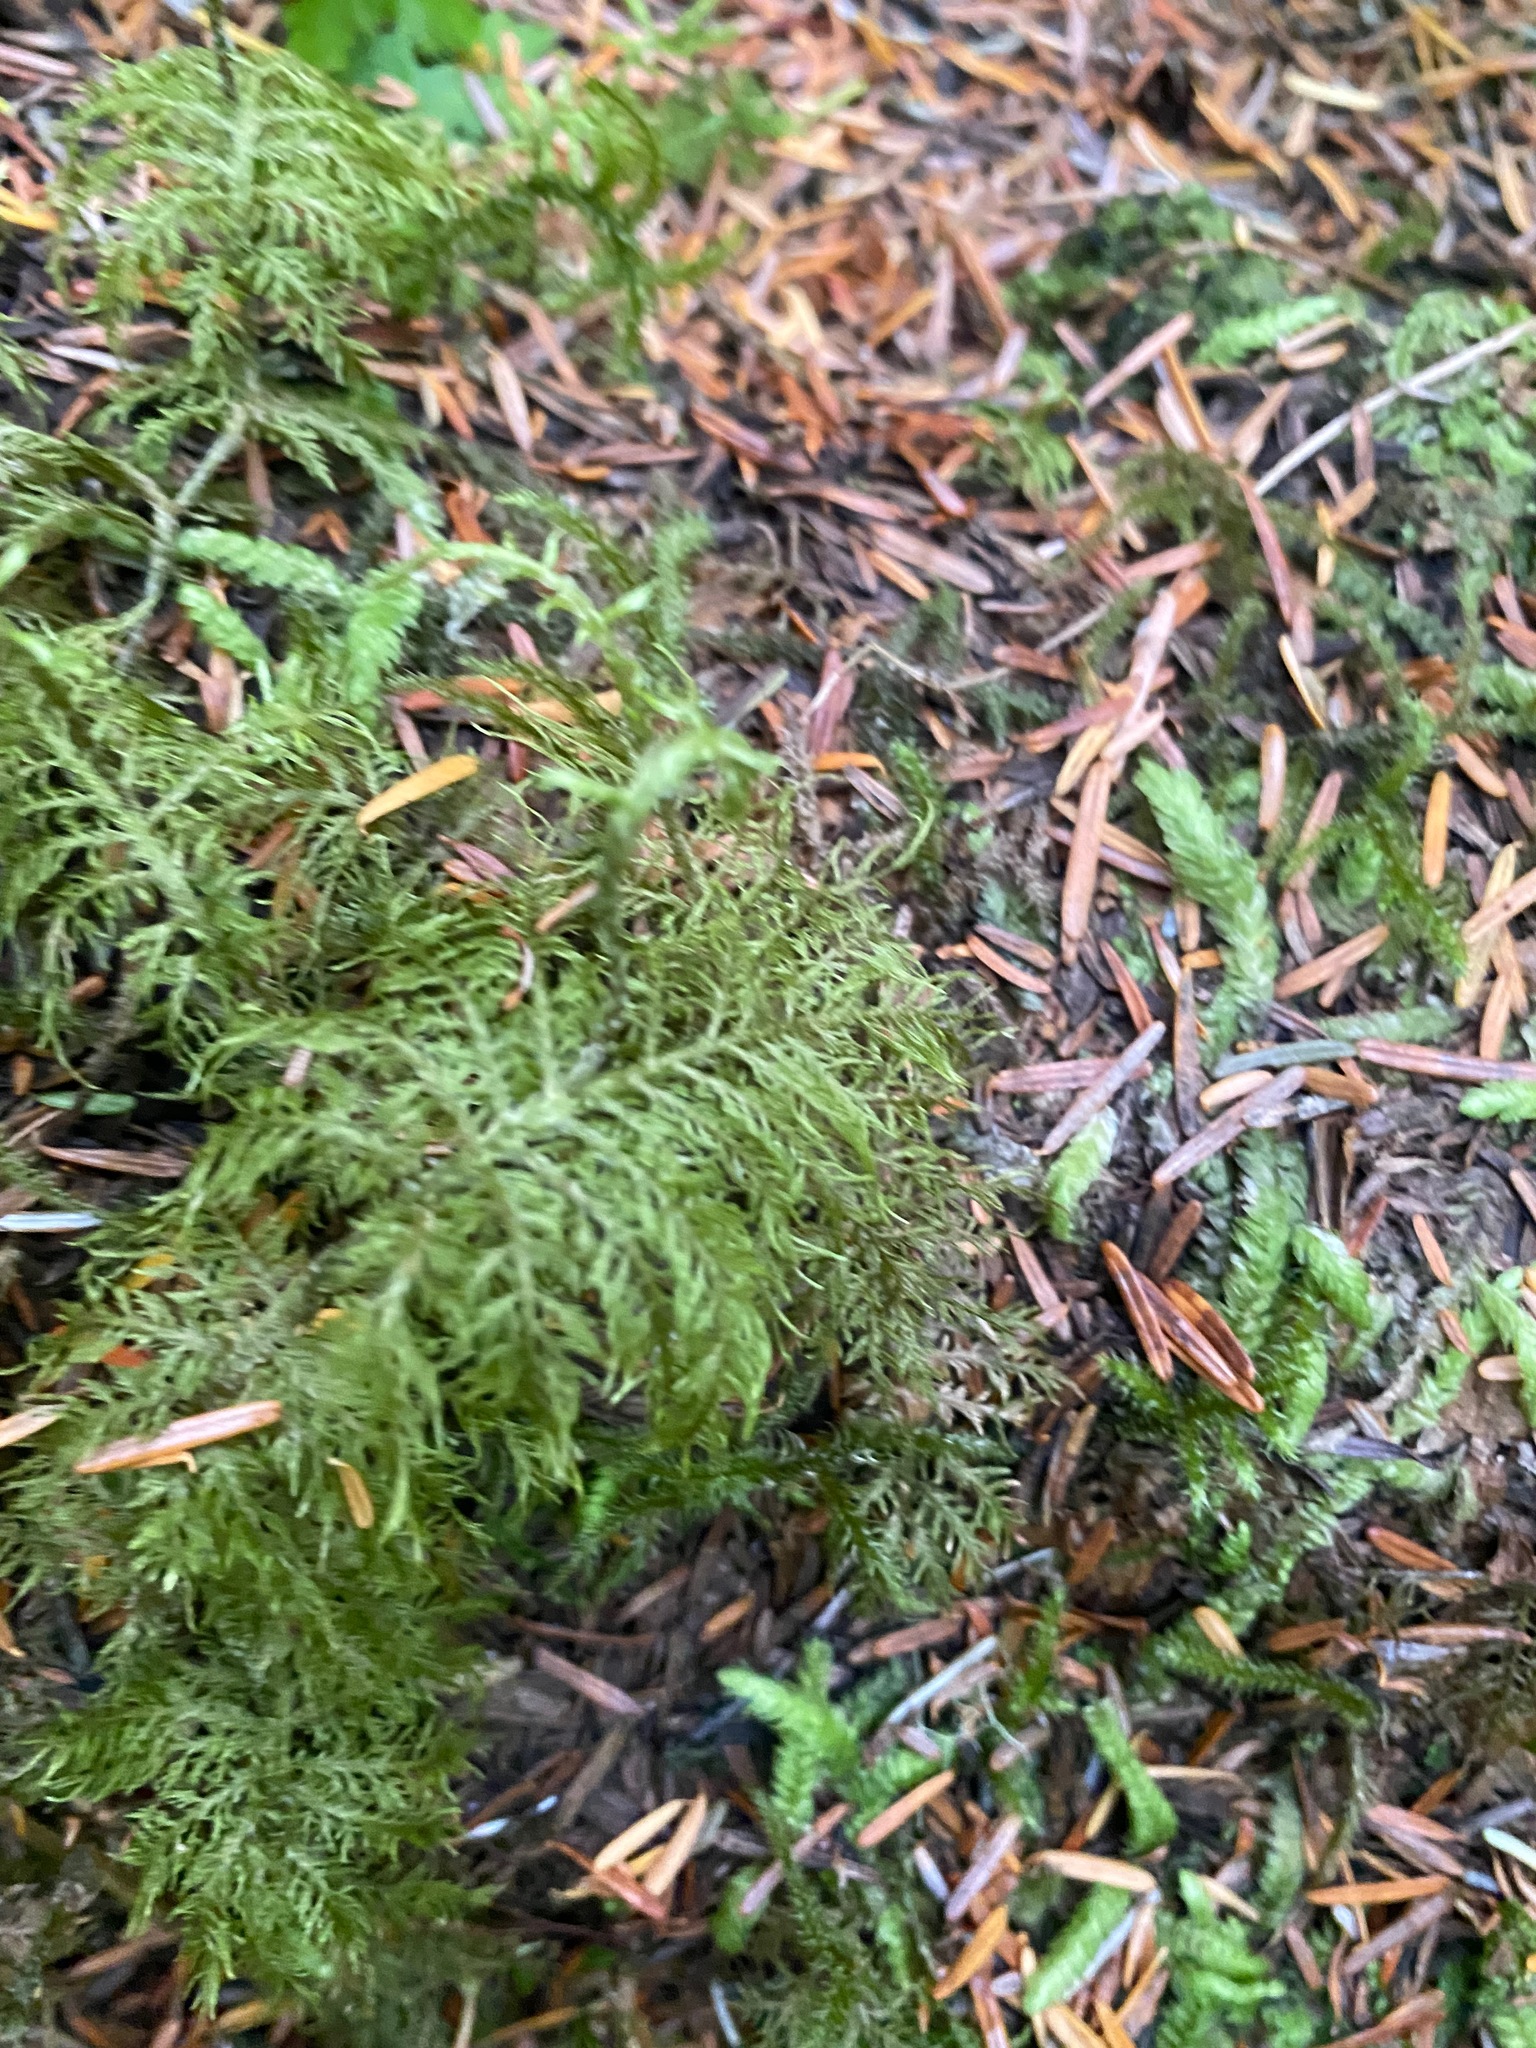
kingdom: Plantae
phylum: Bryophyta
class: Bryopsida
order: Hypnales
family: Hylocomiaceae
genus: Hylocomium
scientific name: Hylocomium splendens
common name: Stairstep moss
